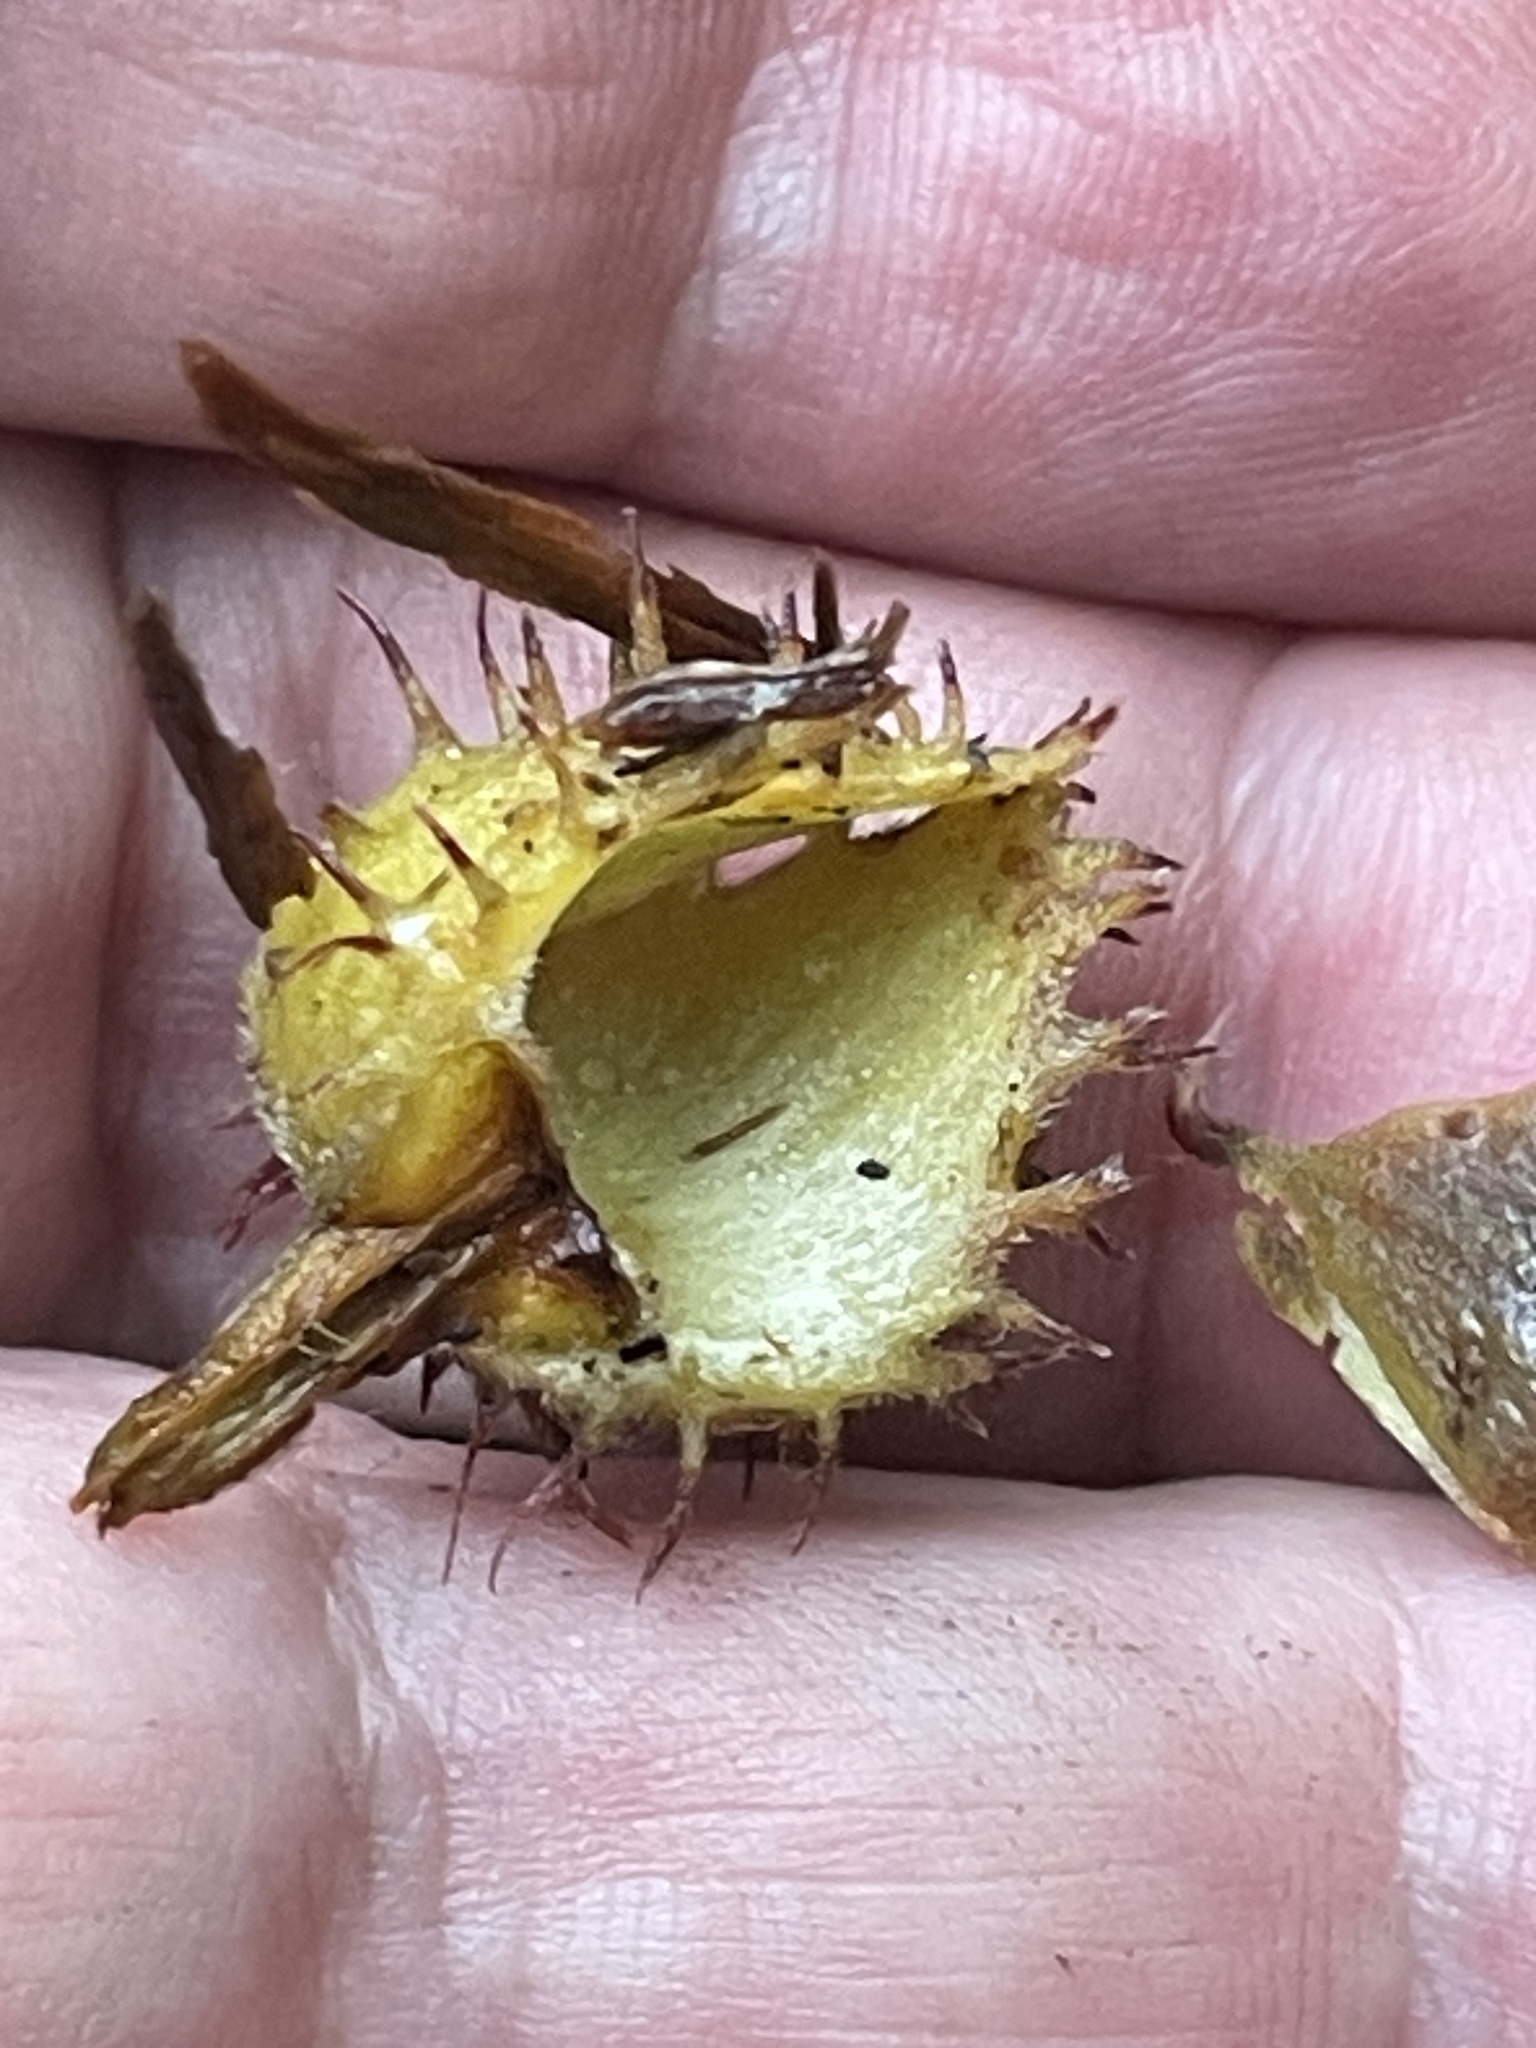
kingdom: Plantae
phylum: Tracheophyta
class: Magnoliopsida
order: Fagales
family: Fagaceae
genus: Fagus
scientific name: Fagus grandifolia
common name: American beech
